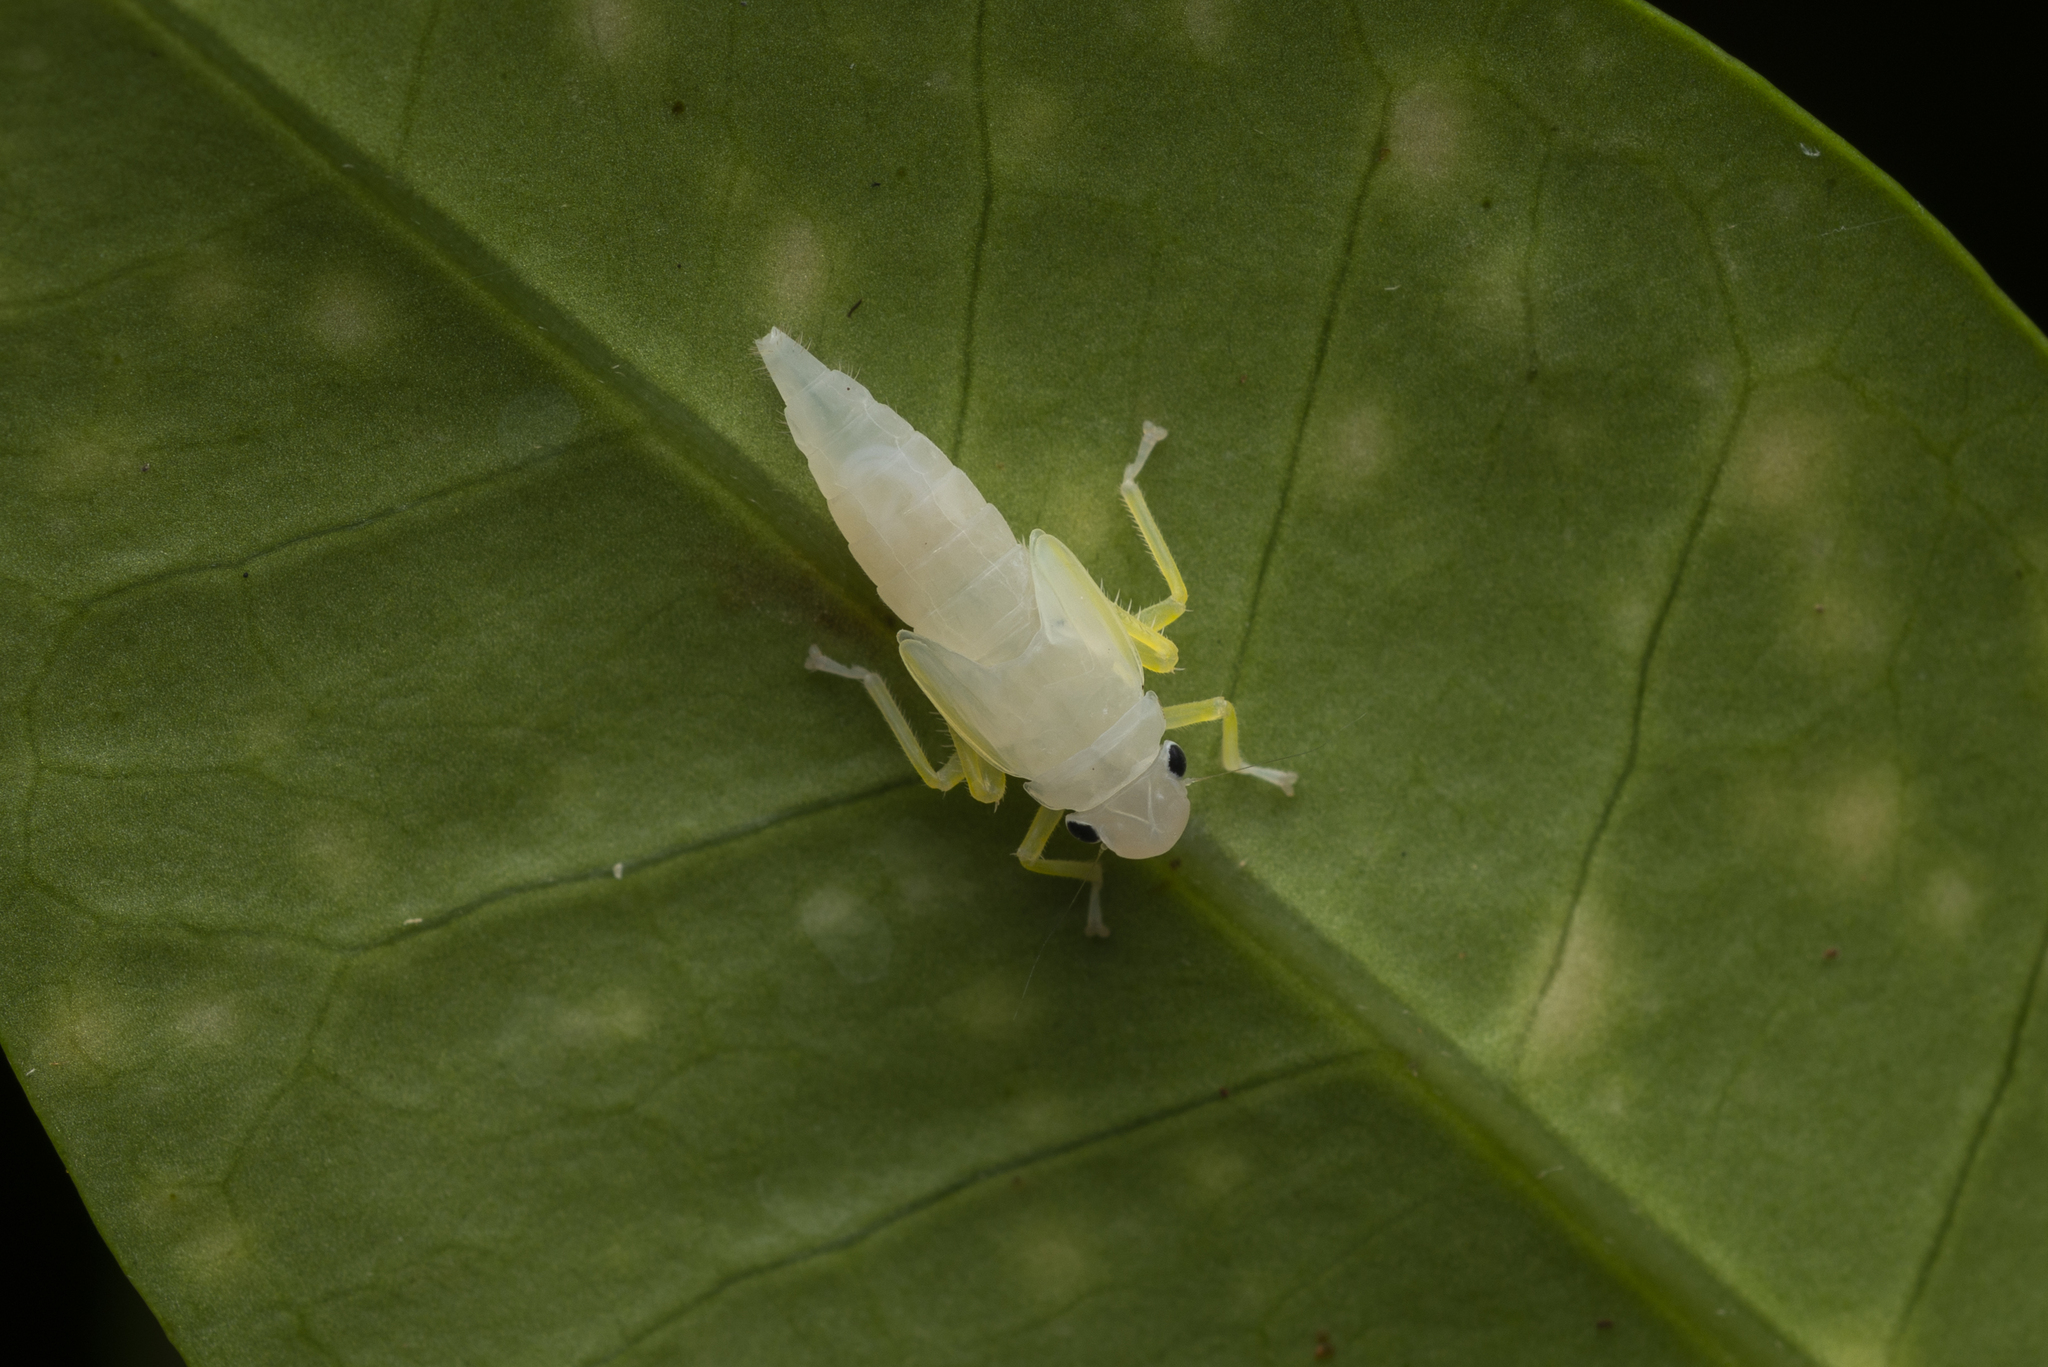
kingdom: Animalia
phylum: Arthropoda
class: Insecta
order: Hemiptera
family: Cicadellidae
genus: Bothrogonia
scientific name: Bothrogonia ferruginea
